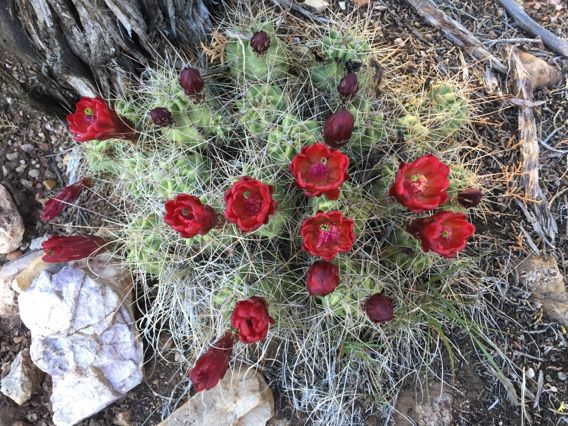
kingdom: Plantae
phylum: Tracheophyta
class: Magnoliopsida
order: Caryophyllales
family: Cactaceae
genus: Echinocereus
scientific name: Echinocereus triglochidiatus
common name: Claretcup hedgehog
